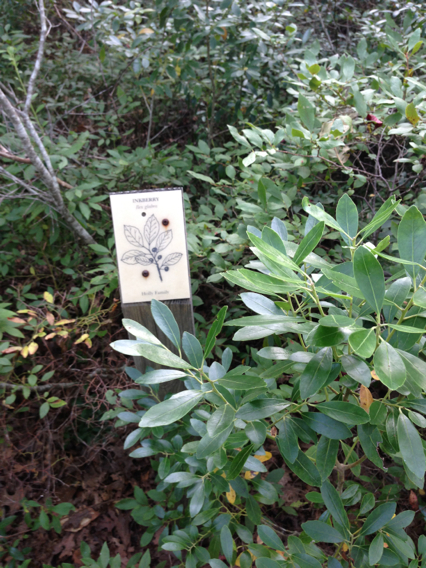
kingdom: Plantae
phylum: Tracheophyta
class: Magnoliopsida
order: Aquifoliales
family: Aquifoliaceae
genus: Ilex
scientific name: Ilex glabra
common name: Bitter gallberry
